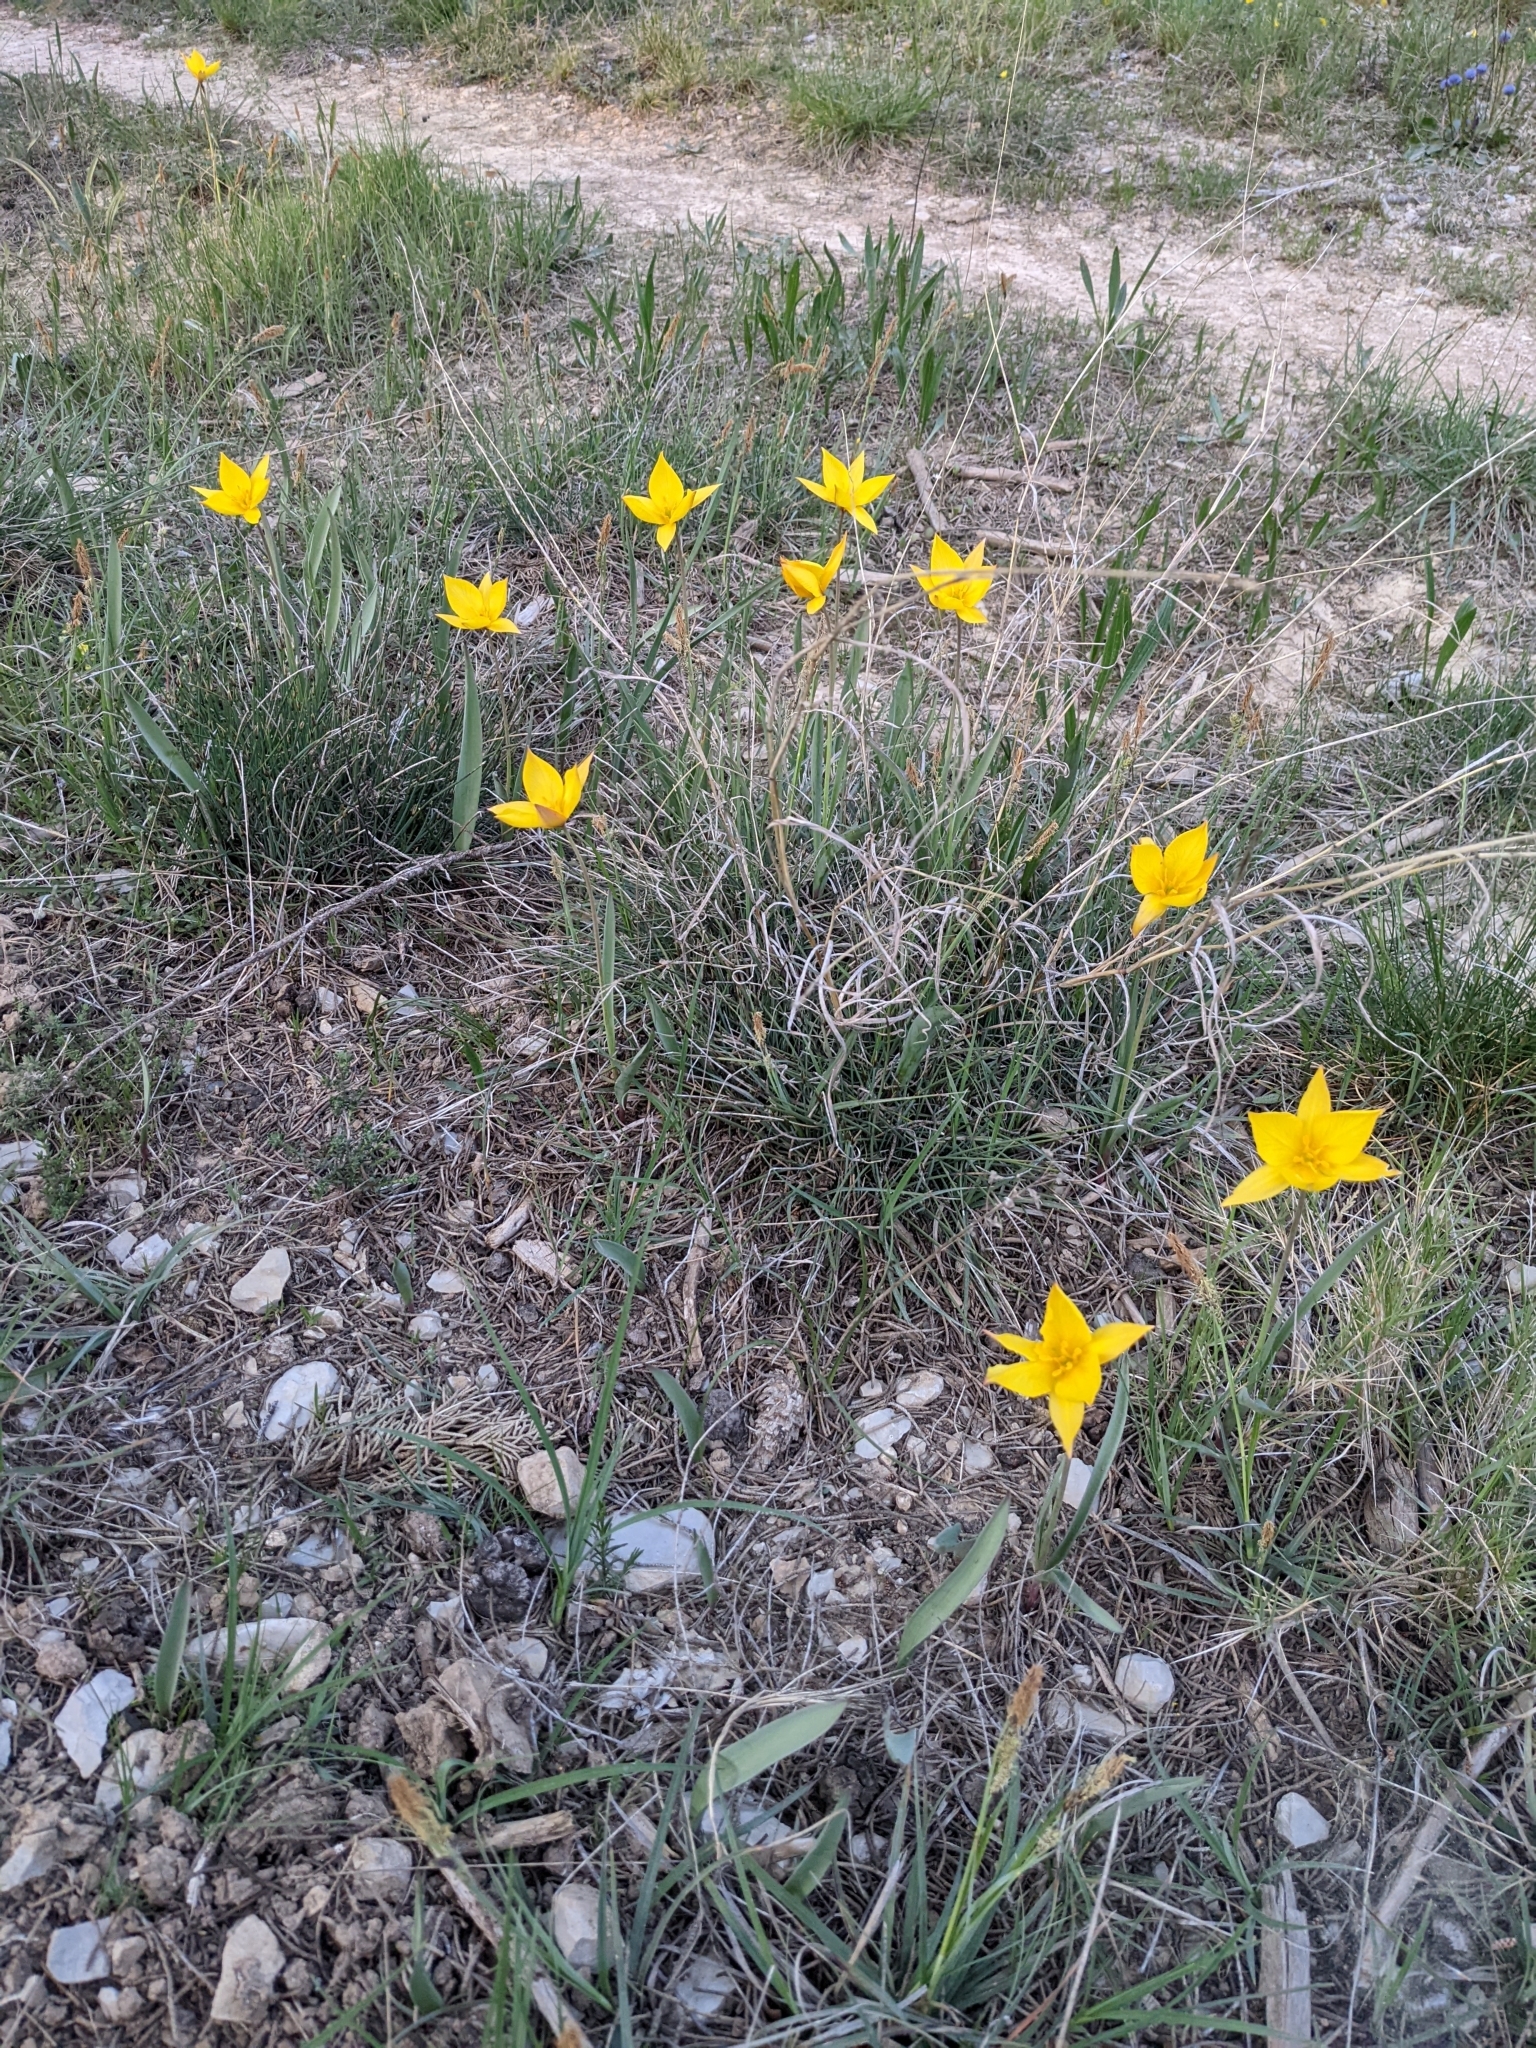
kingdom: Plantae
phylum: Tracheophyta
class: Liliopsida
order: Liliales
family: Liliaceae
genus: Tulipa
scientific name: Tulipa sylvestris
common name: Wild tulip
